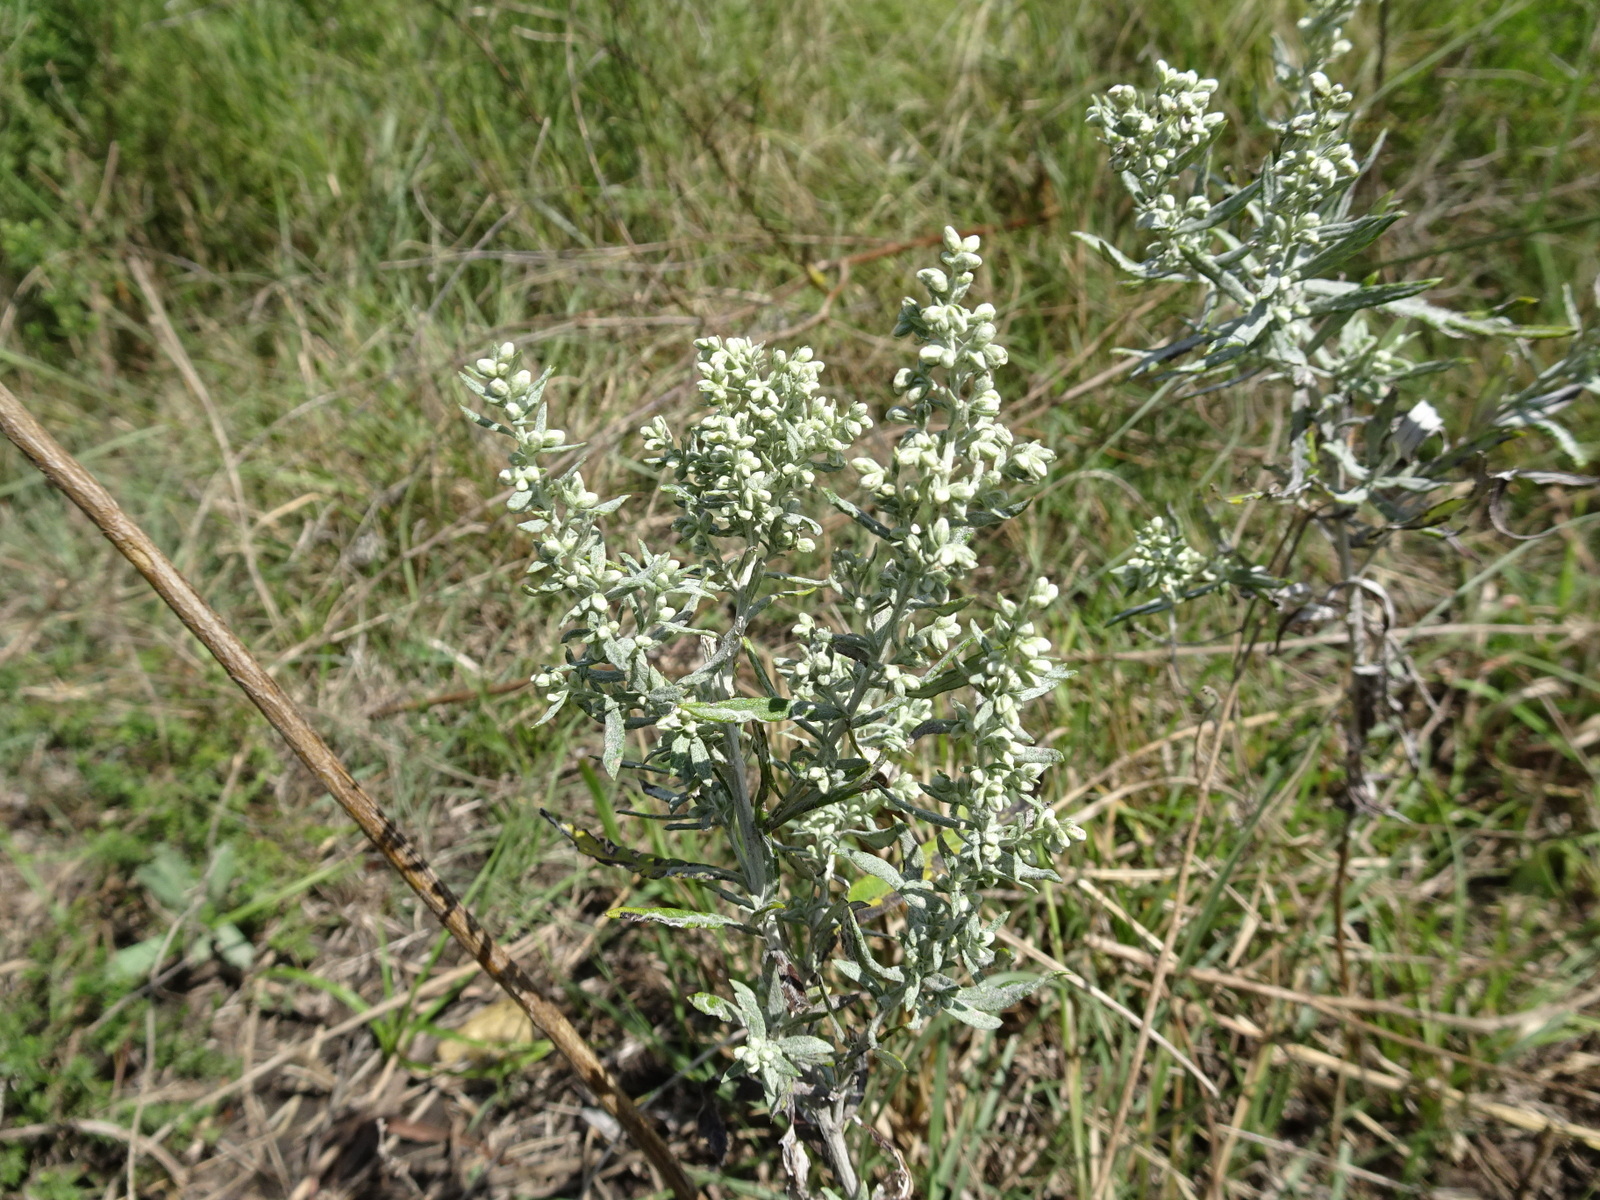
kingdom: Plantae
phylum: Tracheophyta
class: Magnoliopsida
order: Asterales
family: Asteraceae
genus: Artemisia
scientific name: Artemisia ludoviciana
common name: Western mugwort
